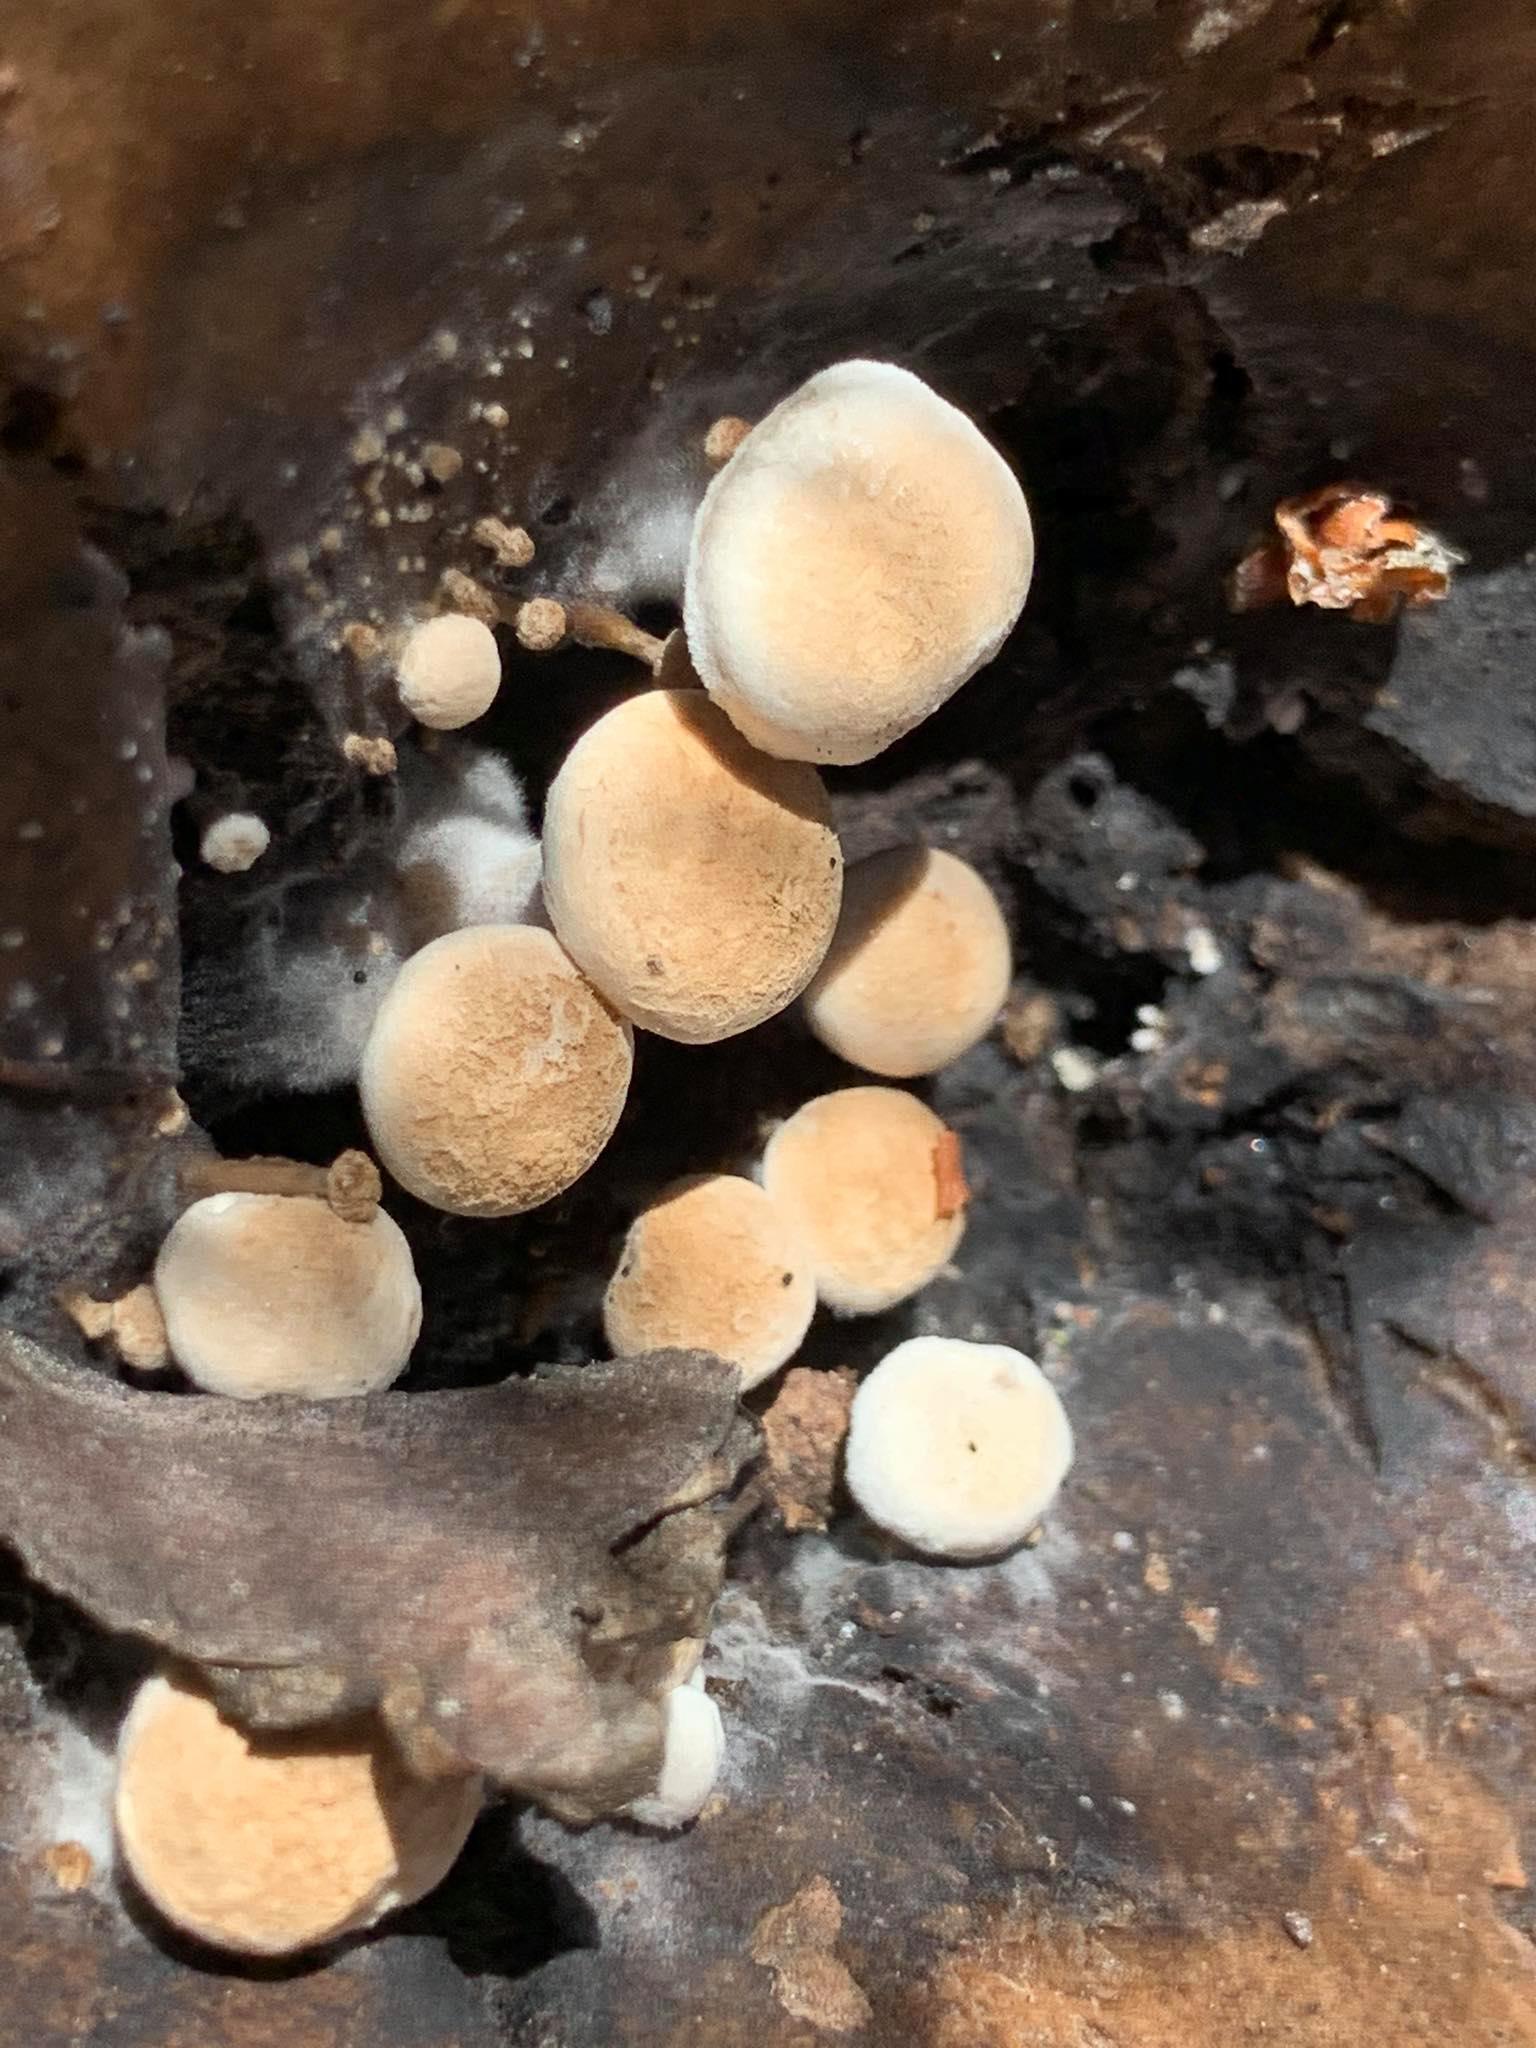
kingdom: Fungi
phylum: Basidiomycota
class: Agaricomycetes
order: Agaricales
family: Lyophyllaceae
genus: Asterophora
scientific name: Asterophora lycoperdoides
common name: Pick-a-back toadstool
